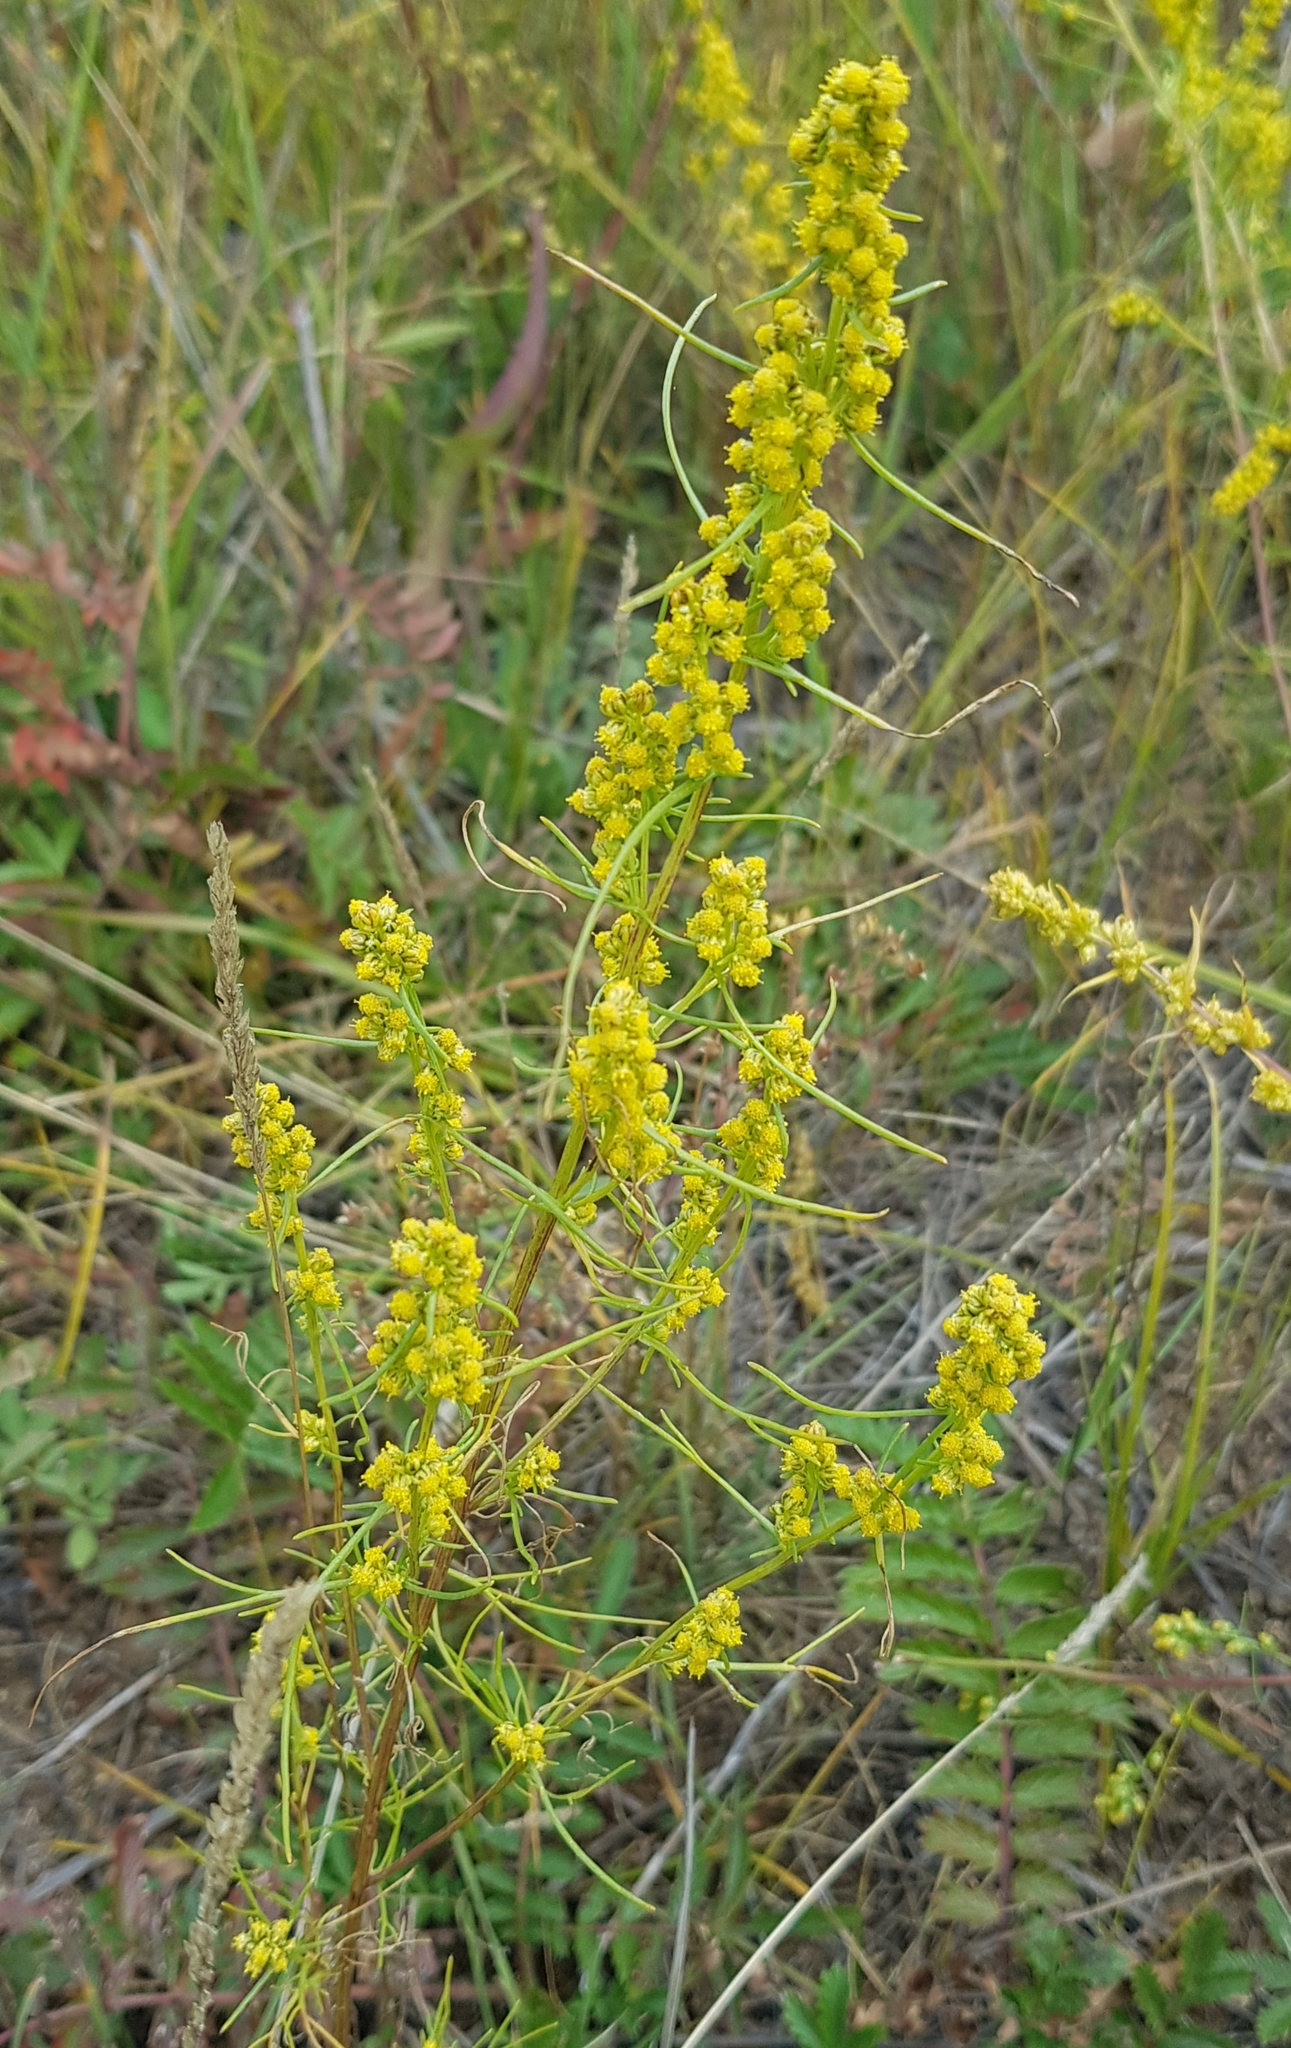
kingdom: Plantae
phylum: Tracheophyta
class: Magnoliopsida
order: Asterales
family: Asteraceae
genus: Artemisia
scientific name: Artemisia palustris
